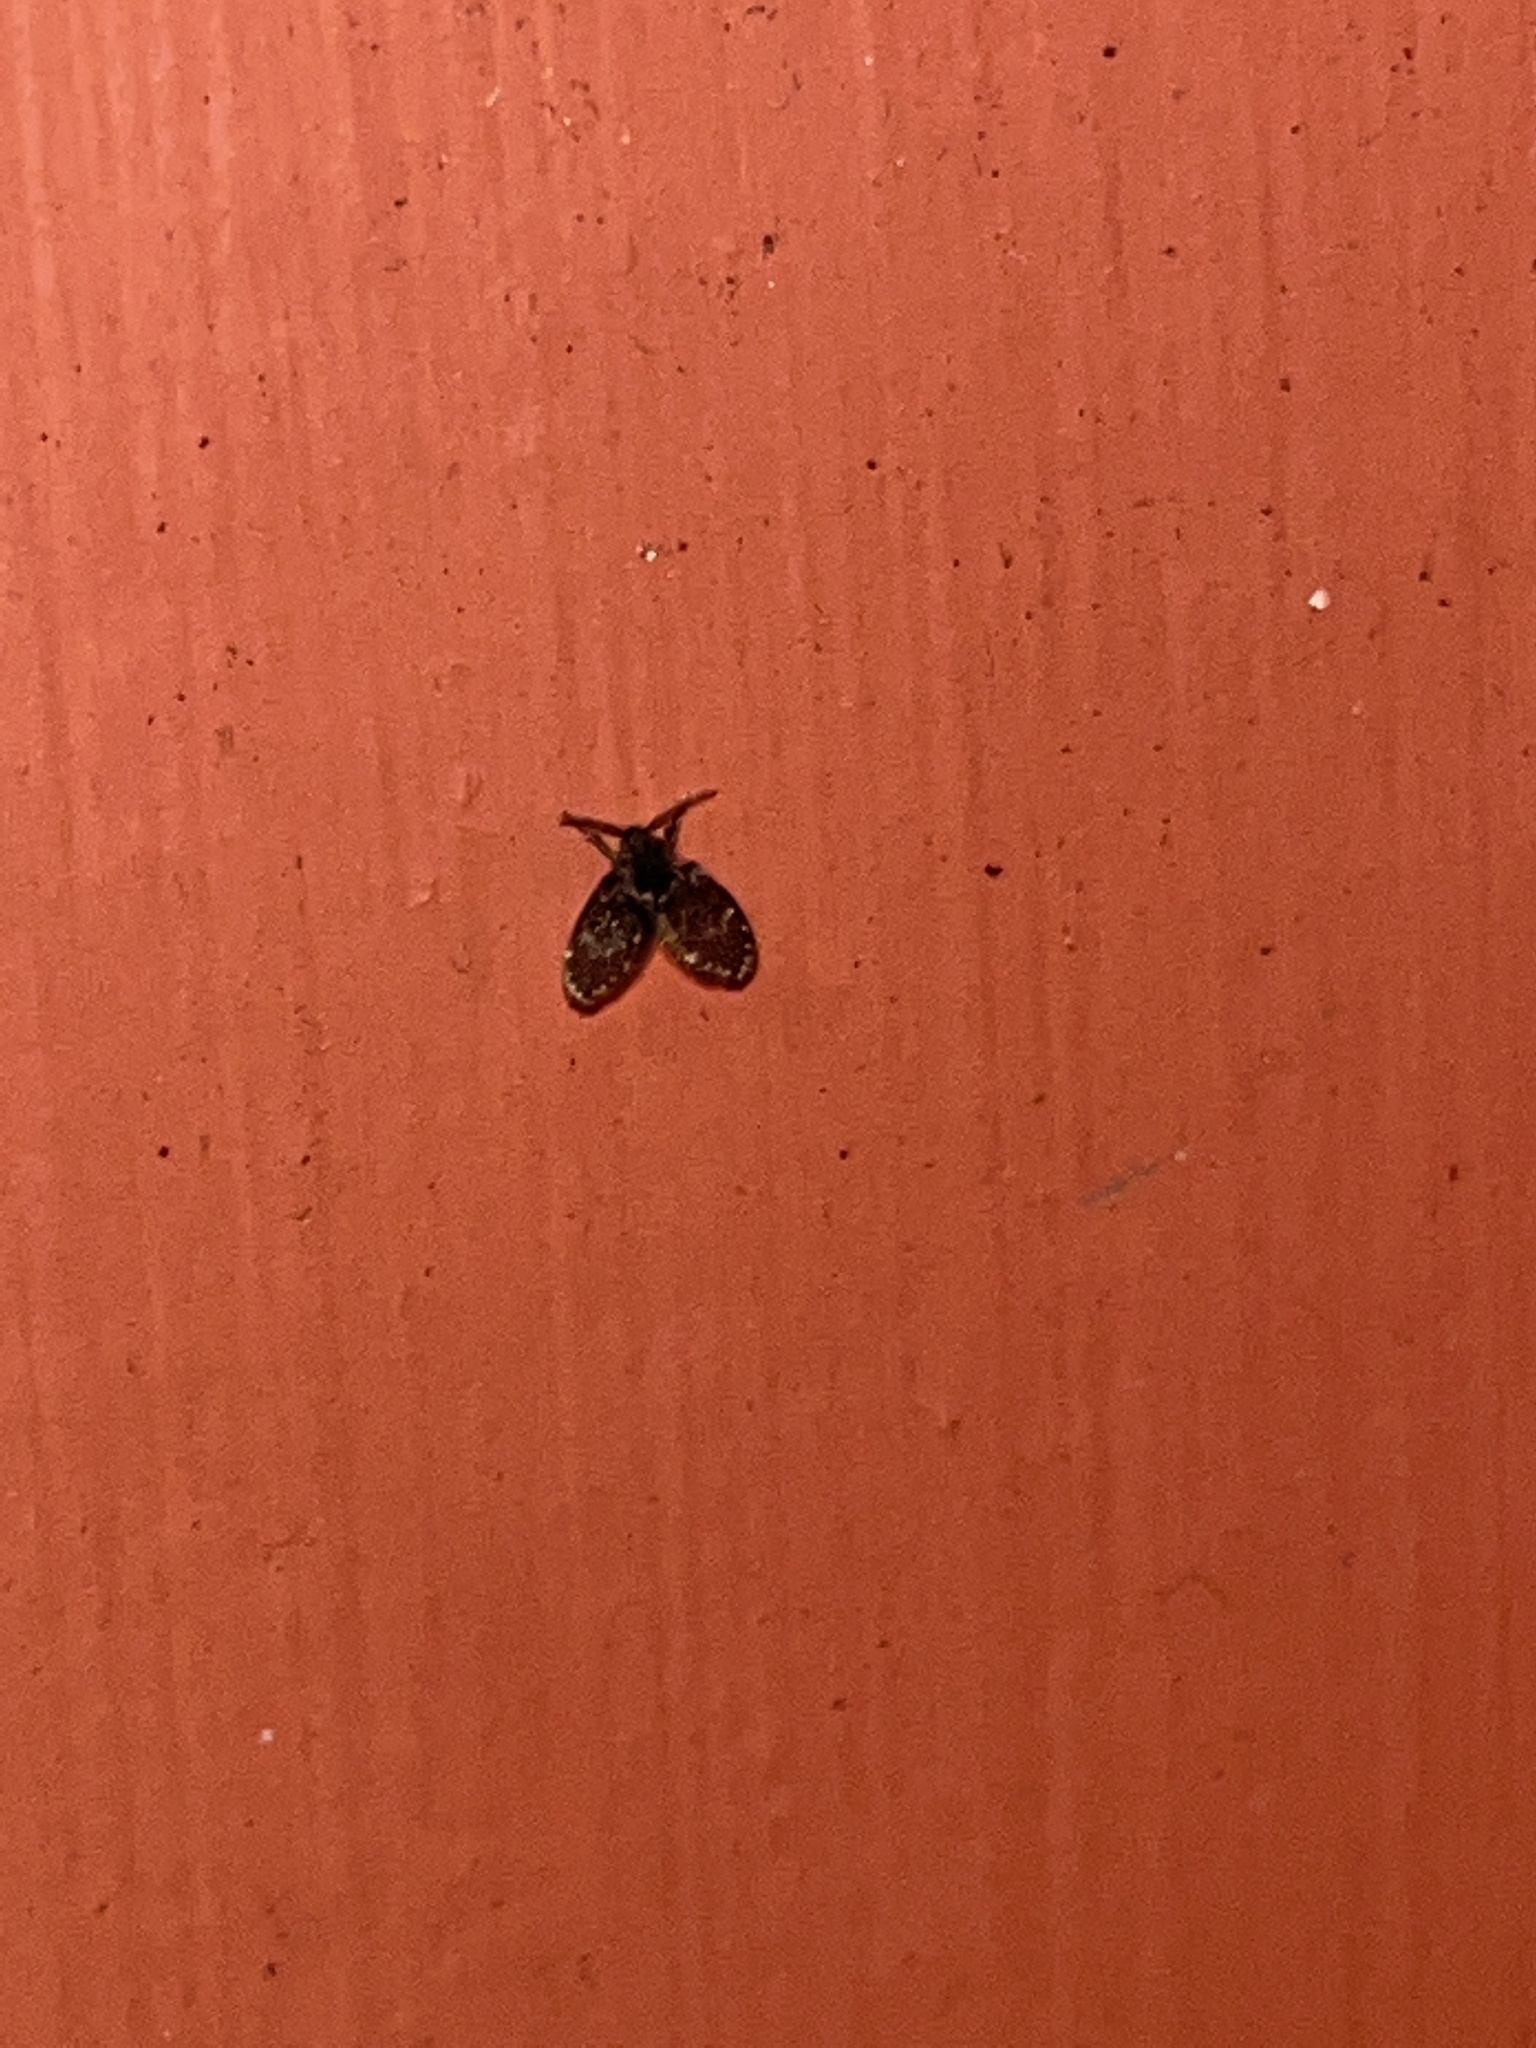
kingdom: Animalia
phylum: Arthropoda
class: Insecta
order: Diptera
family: Psychodidae
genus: Clogmia
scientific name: Clogmia albipunctatus
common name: White-spotted moth fly
